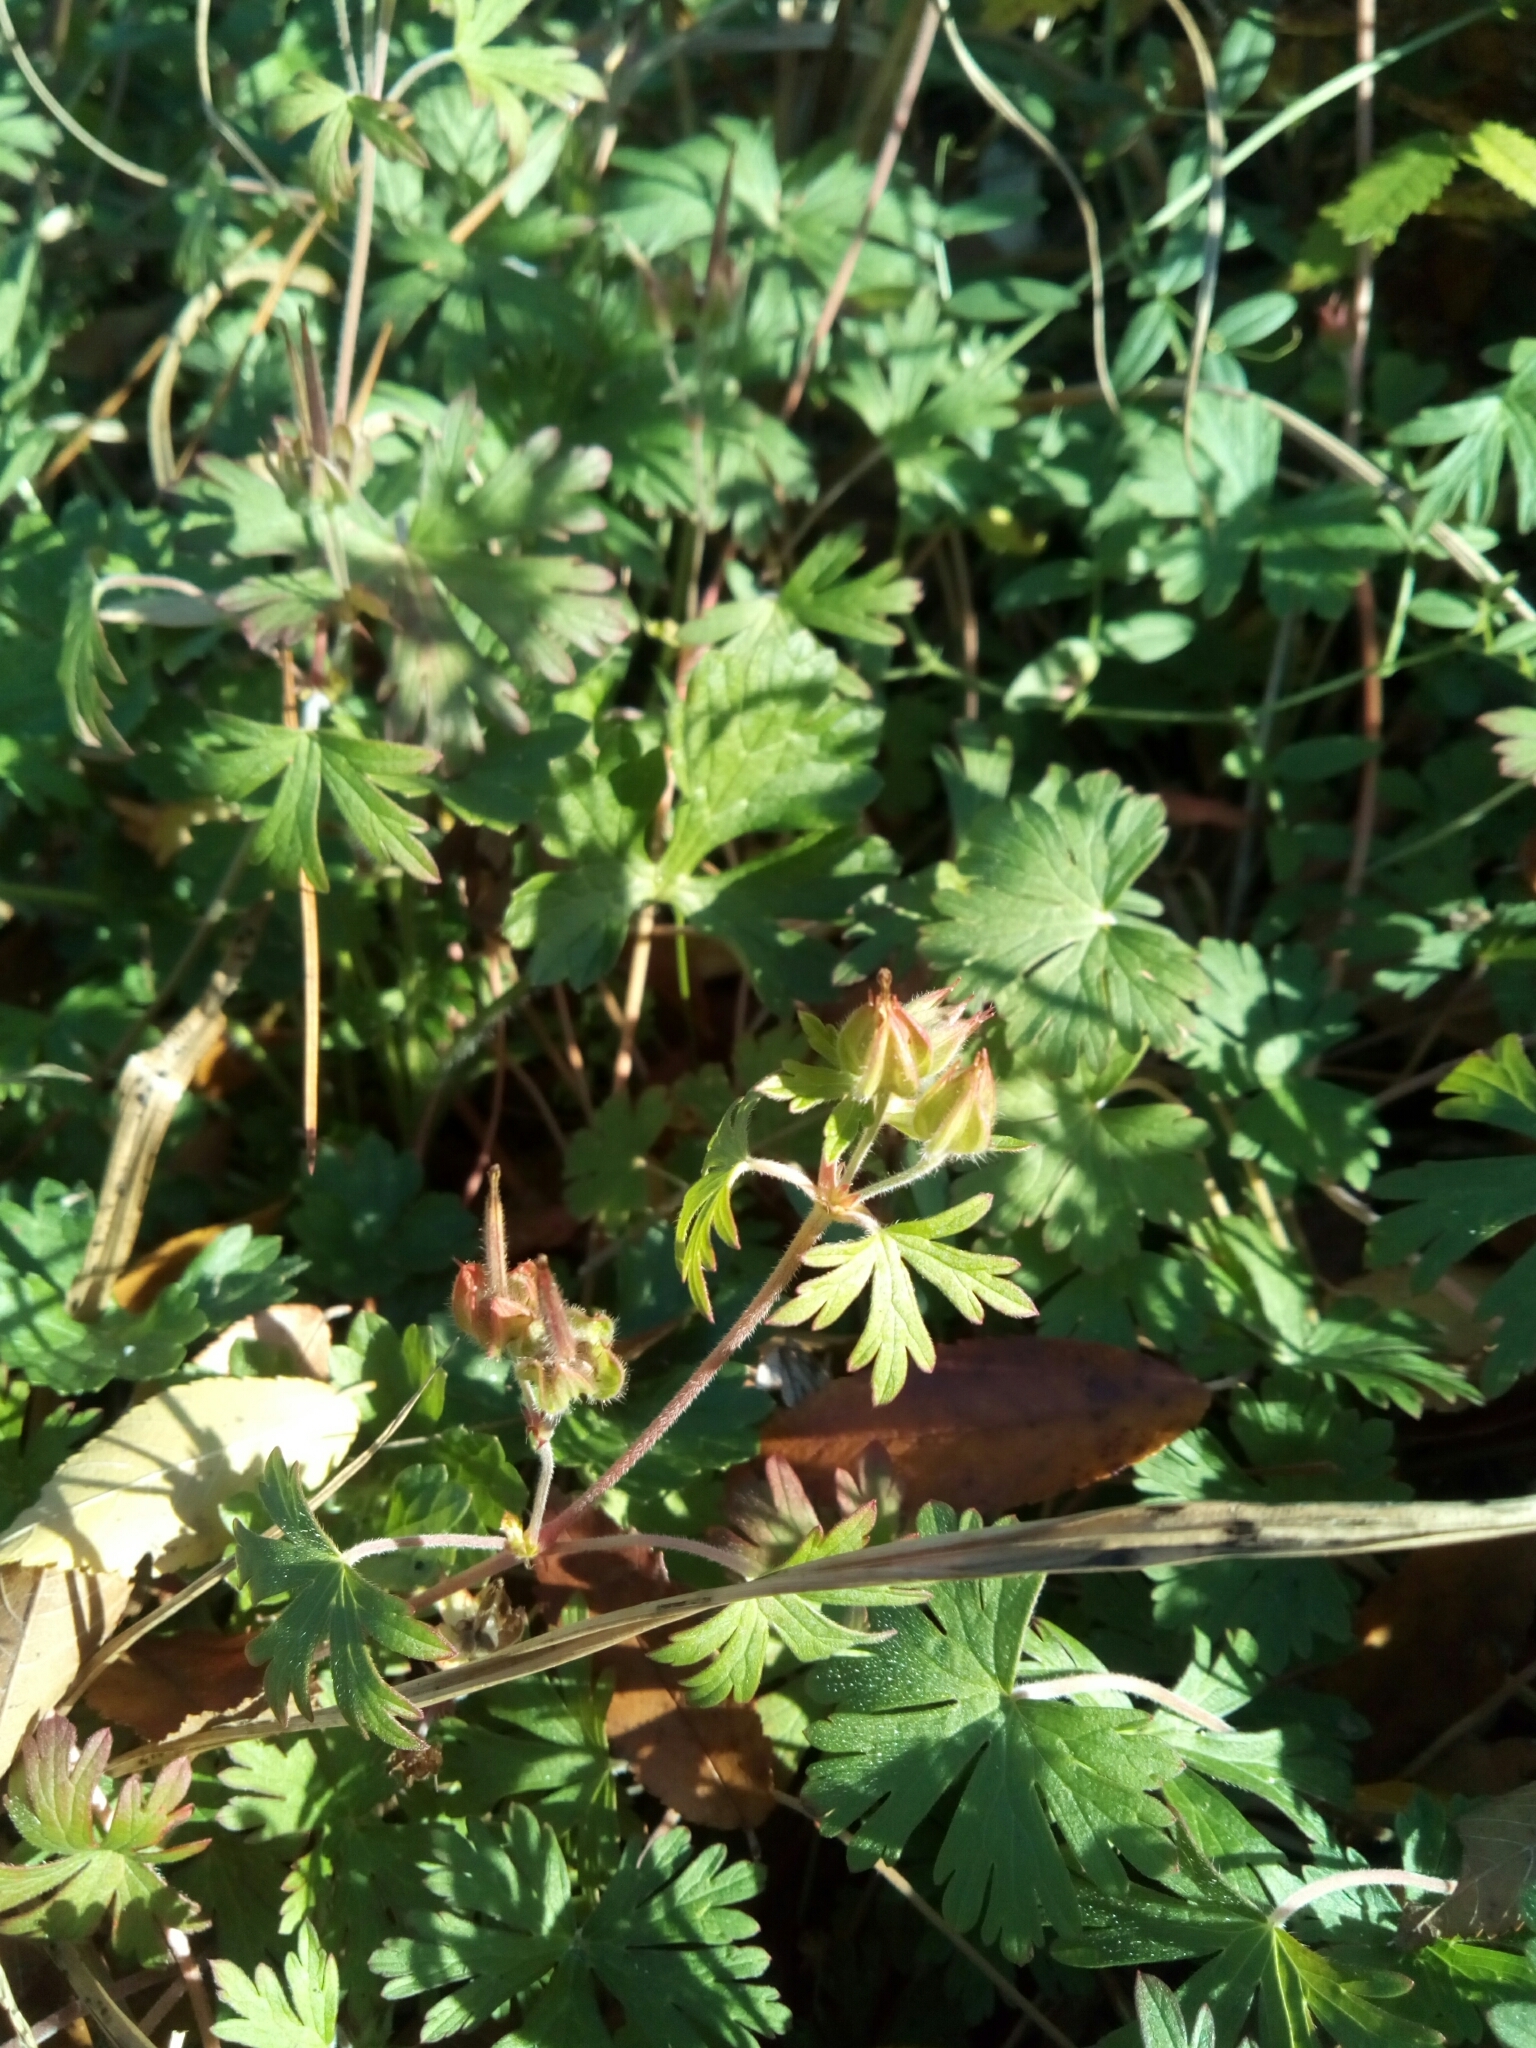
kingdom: Plantae
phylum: Tracheophyta
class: Magnoliopsida
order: Geraniales
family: Geraniaceae
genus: Geranium
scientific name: Geranium carolinianum
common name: Carolina crane's-bill
